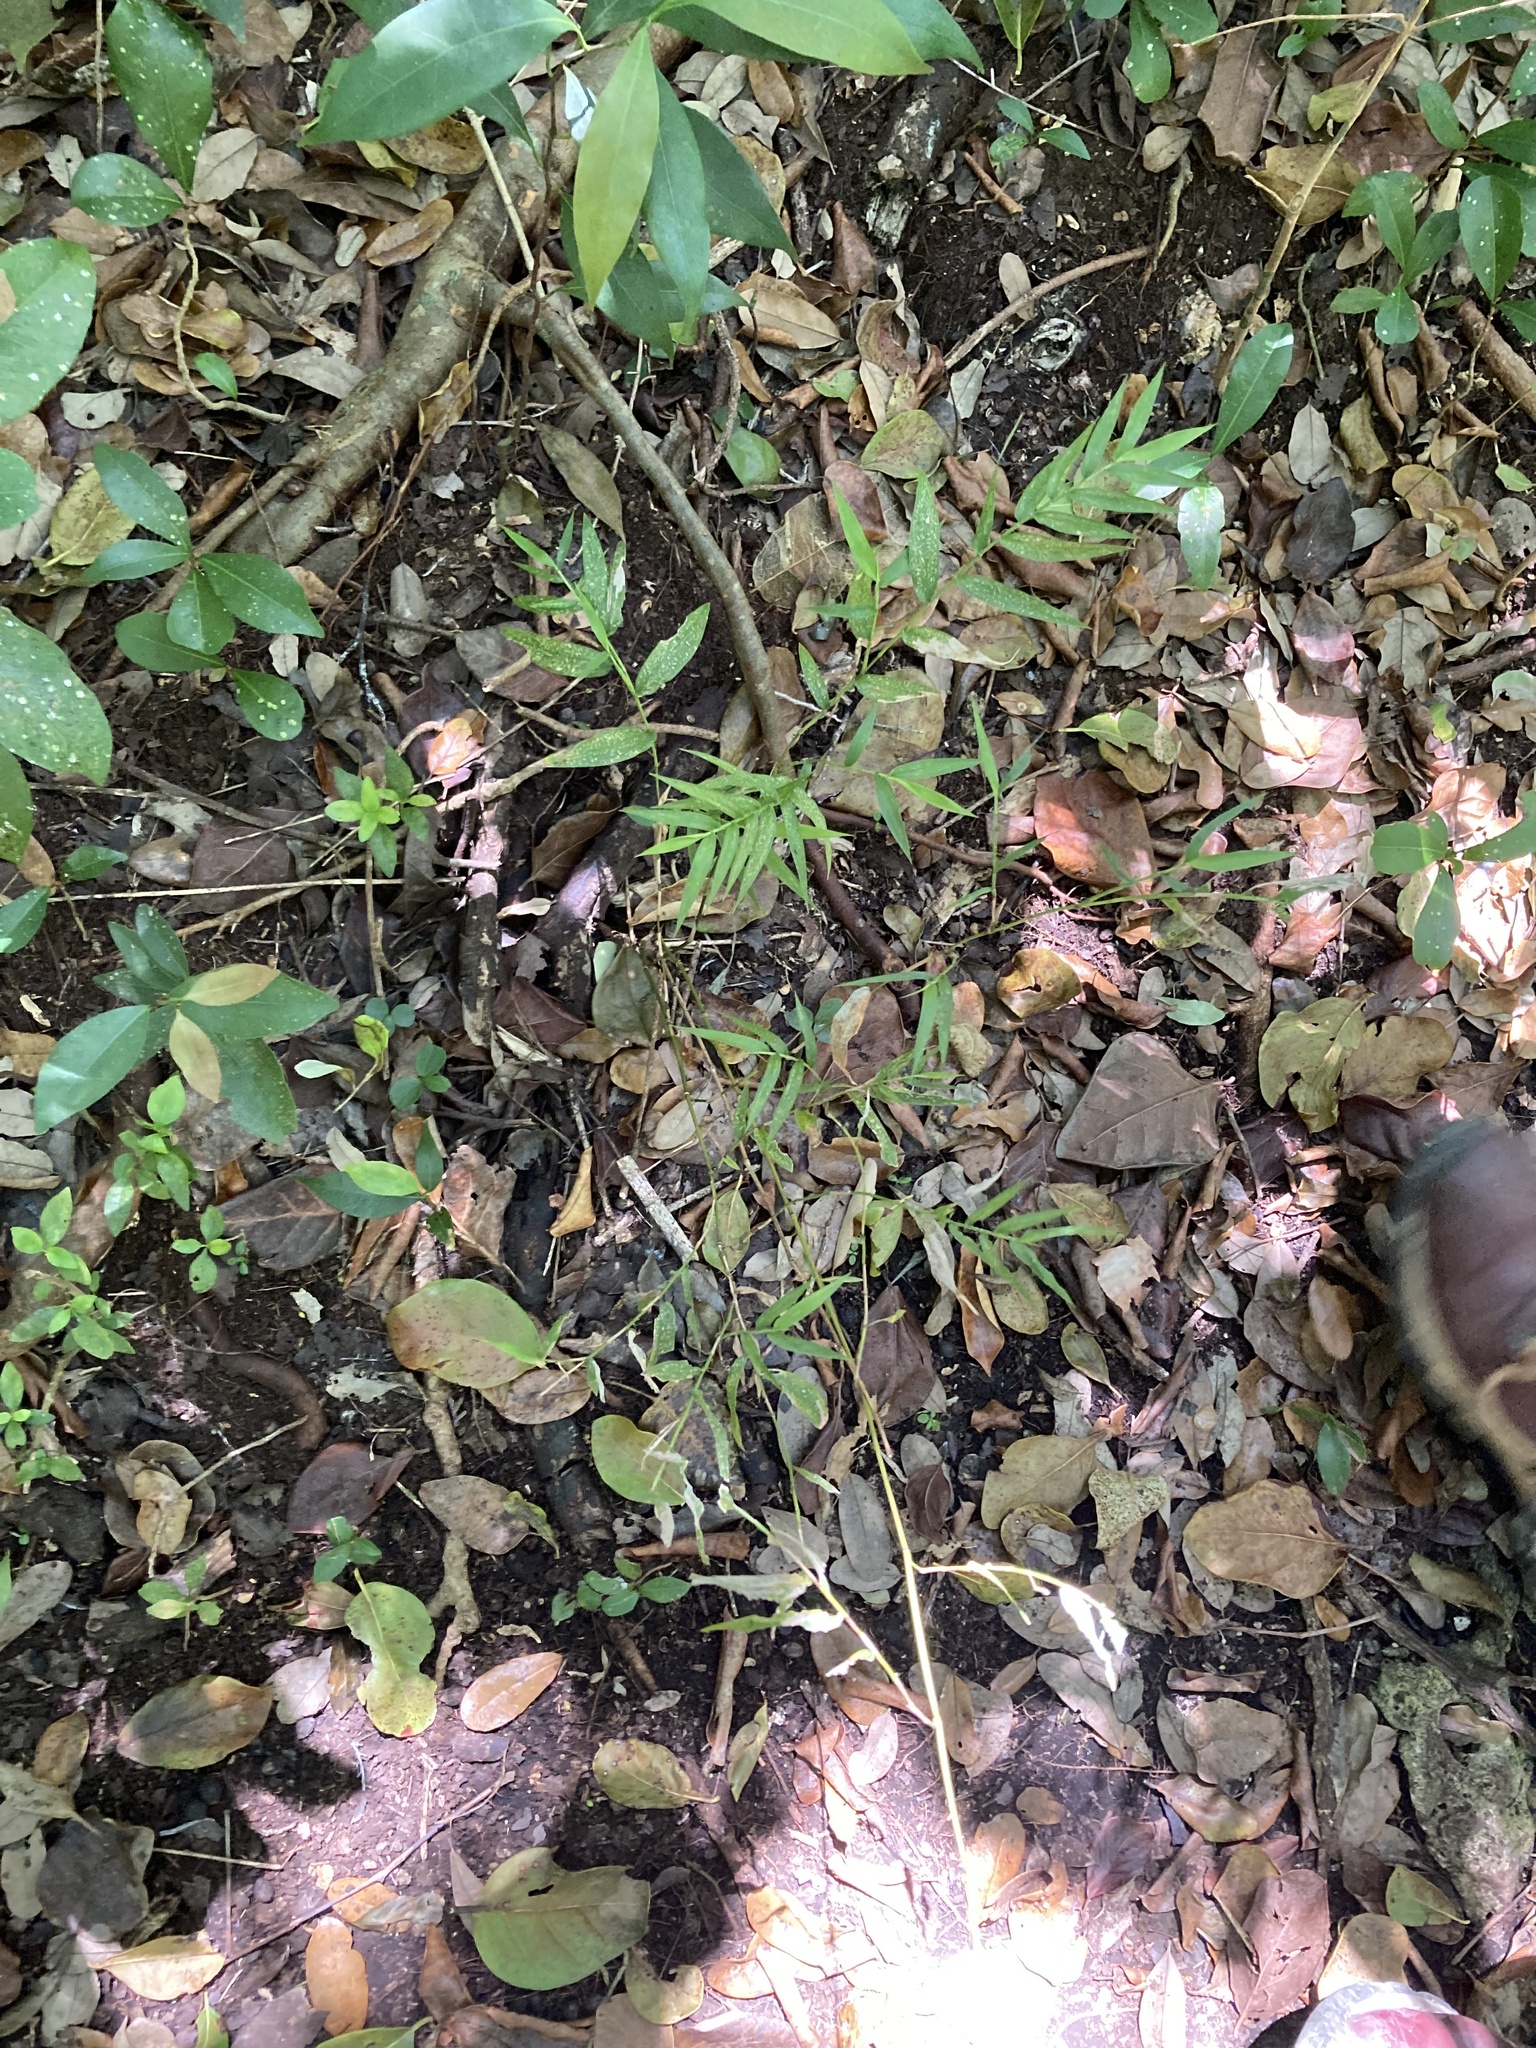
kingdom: Plantae
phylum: Tracheophyta
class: Liliopsida
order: Poales
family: Poaceae
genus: Lasiacis
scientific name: Lasiacis divaricata
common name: Smallcane
